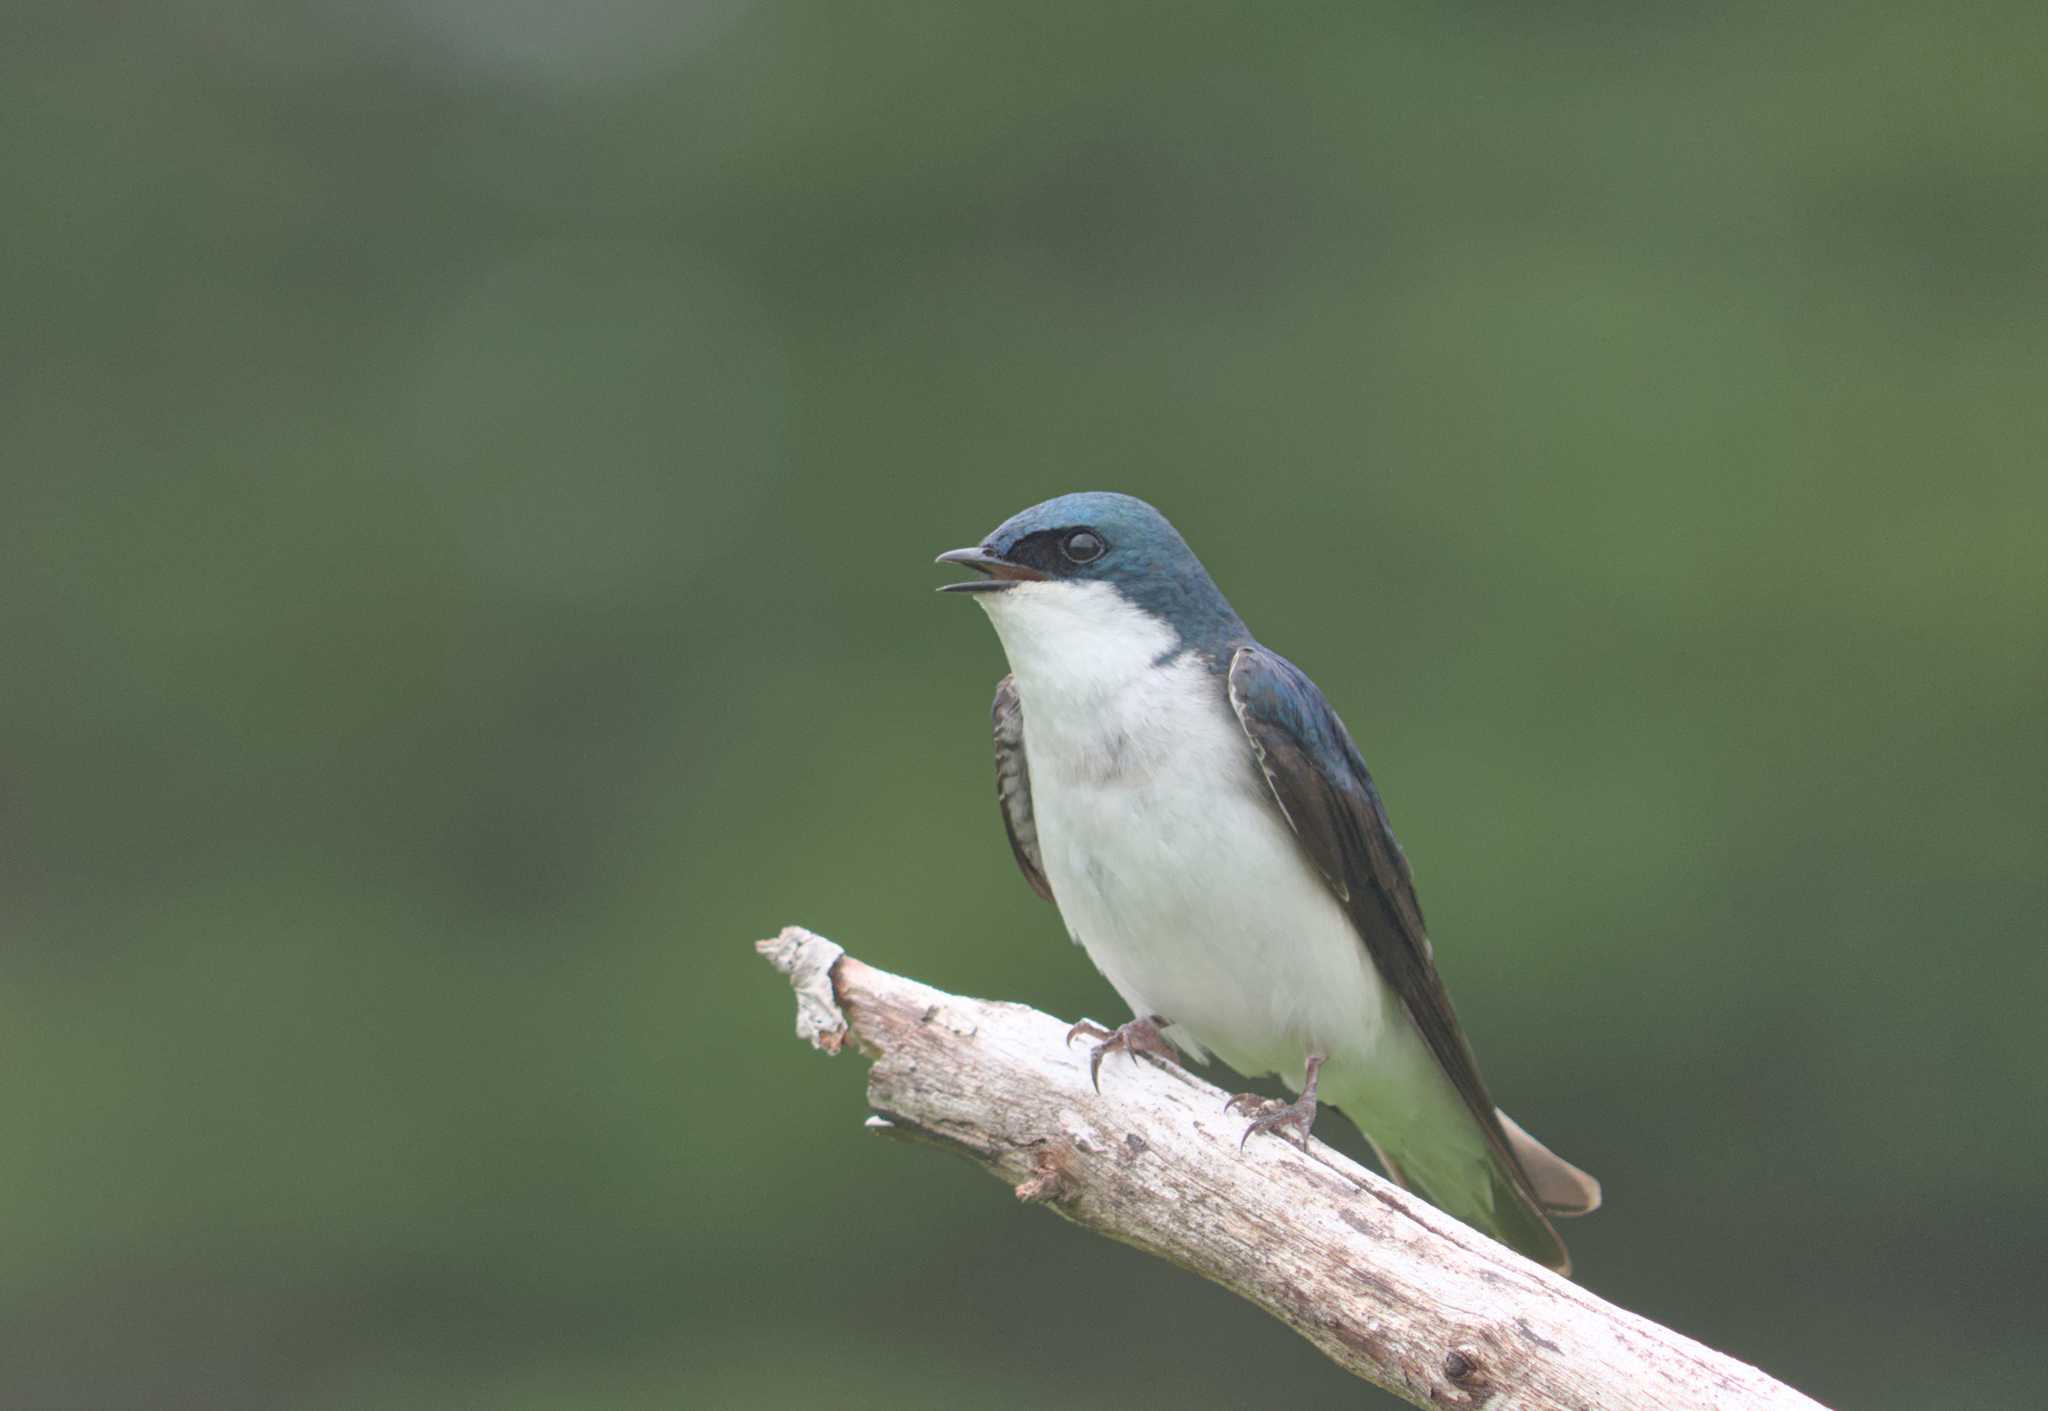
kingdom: Animalia
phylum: Chordata
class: Aves
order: Passeriformes
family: Hirundinidae
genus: Tachycineta
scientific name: Tachycineta bicolor
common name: Tree swallow
